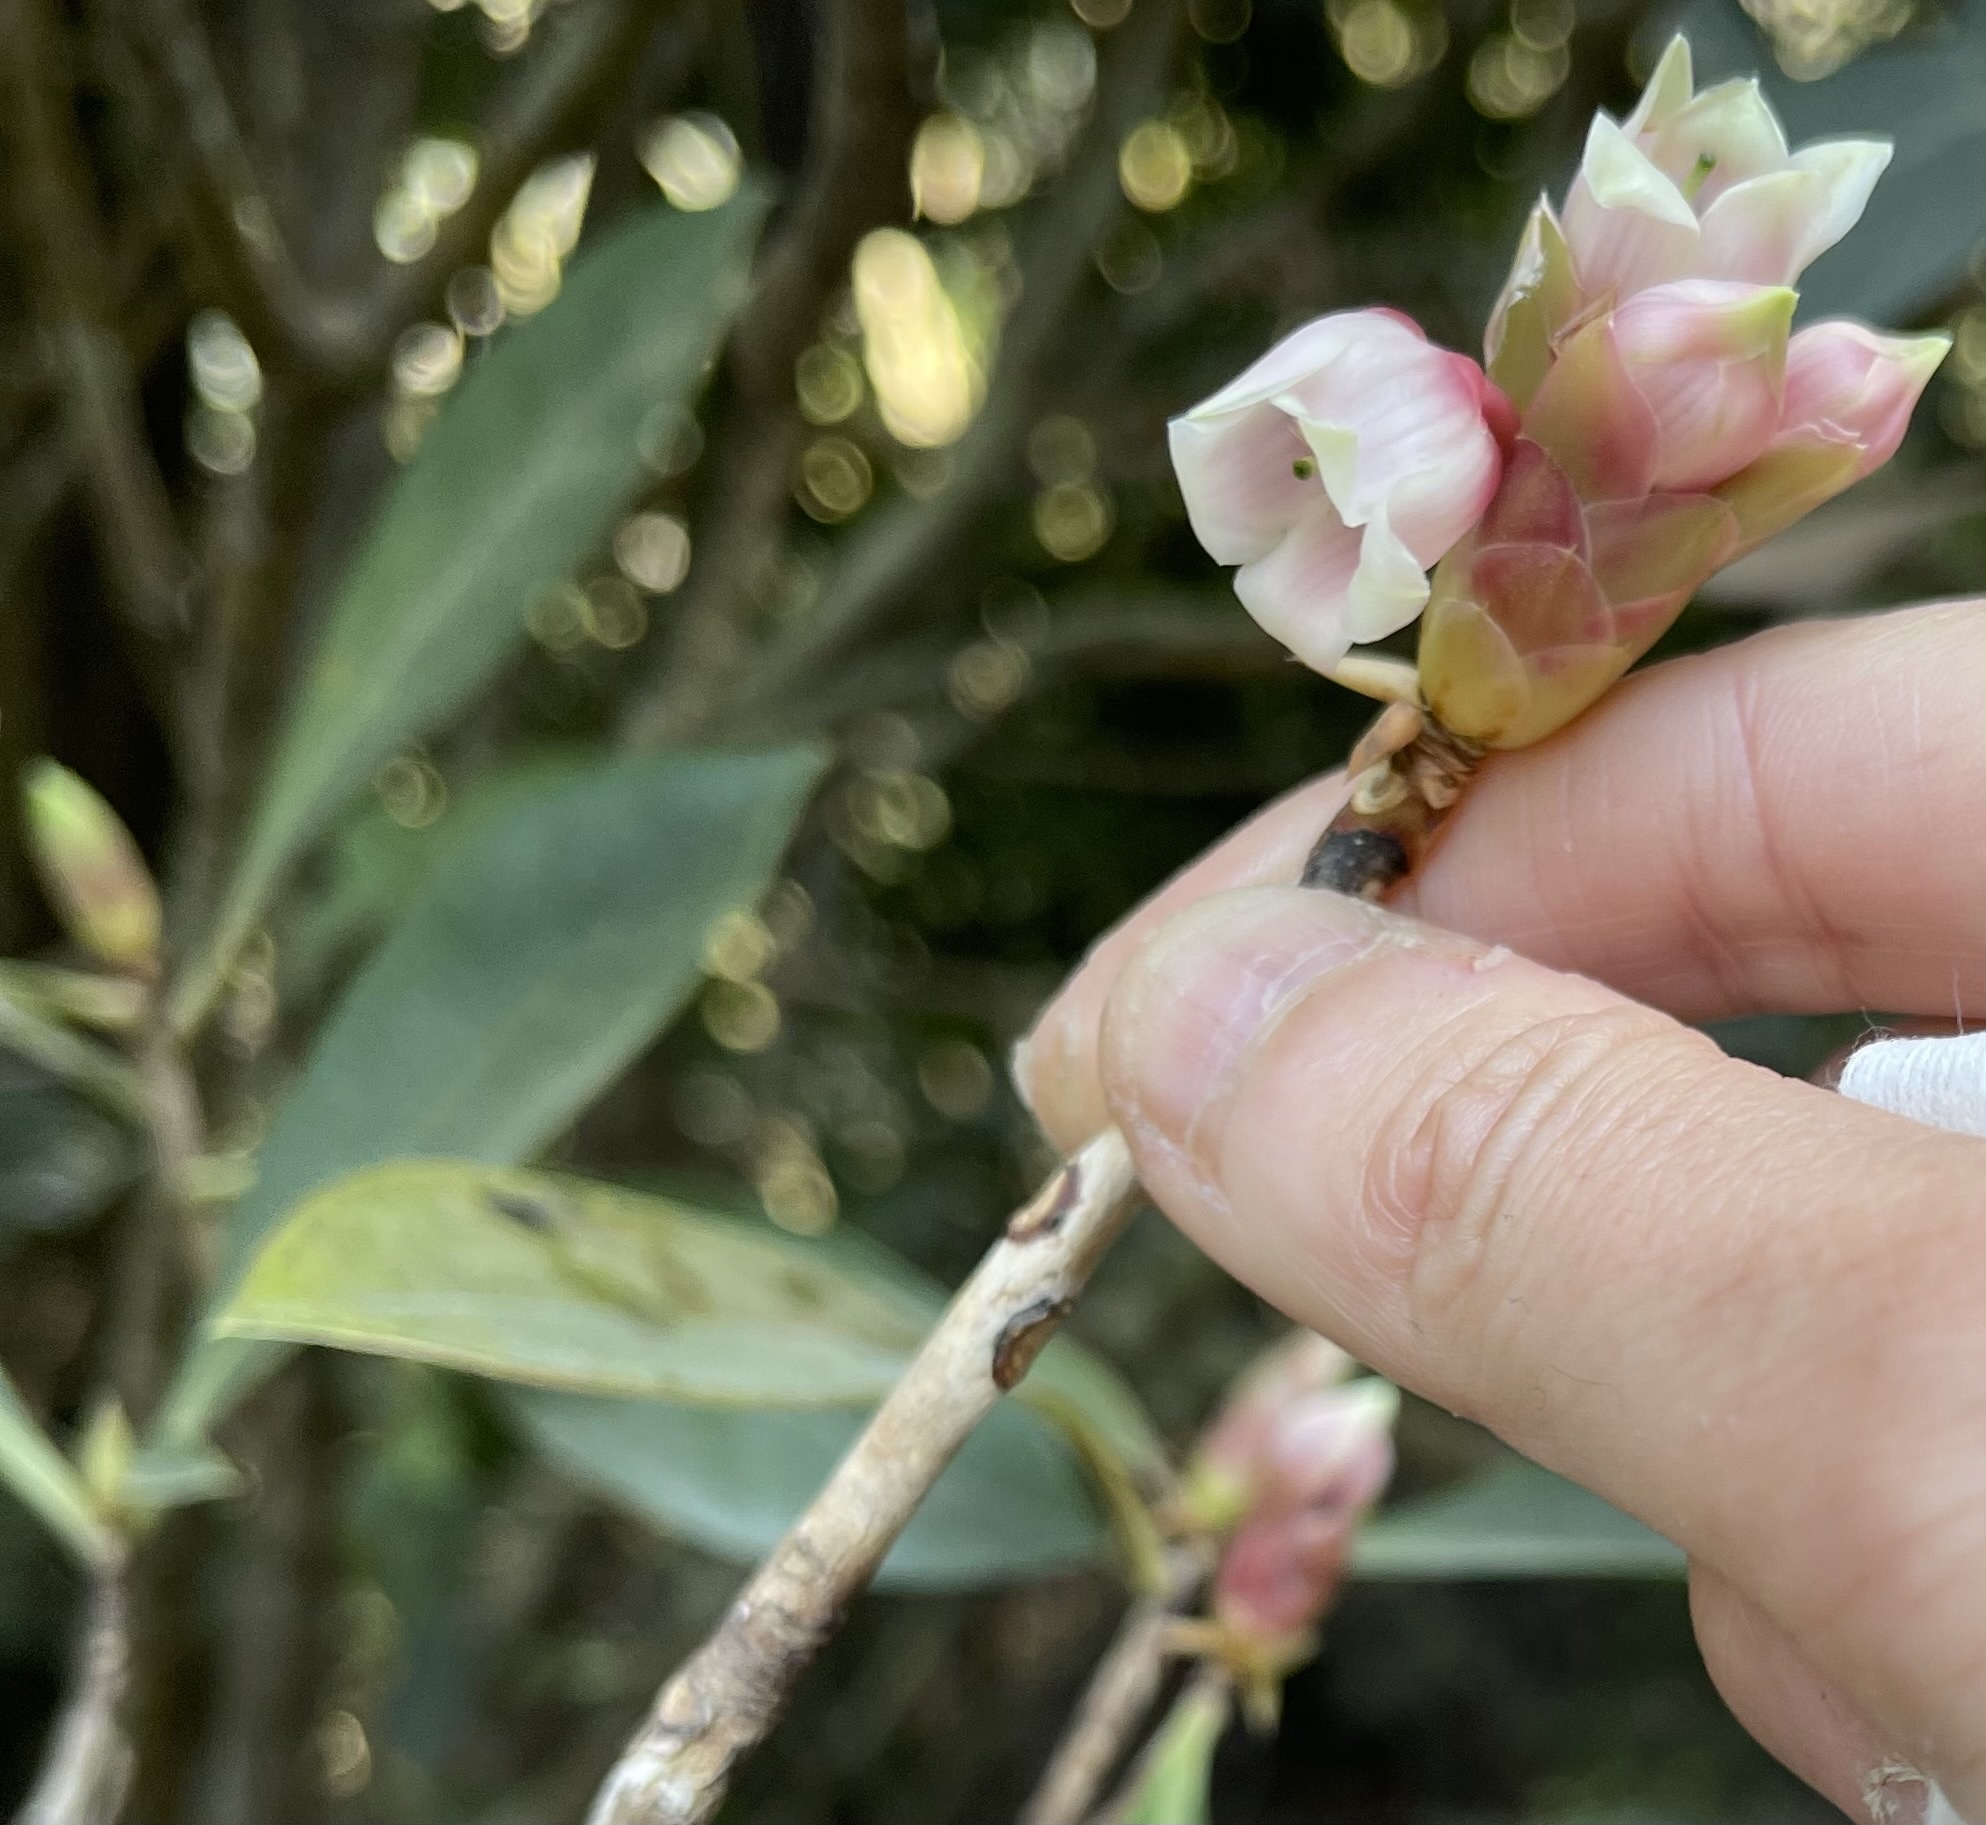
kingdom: Plantae
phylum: Tracheophyta
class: Magnoliopsida
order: Ericales
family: Ericaceae
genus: Enkianthus
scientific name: Enkianthus quinqueflorus
